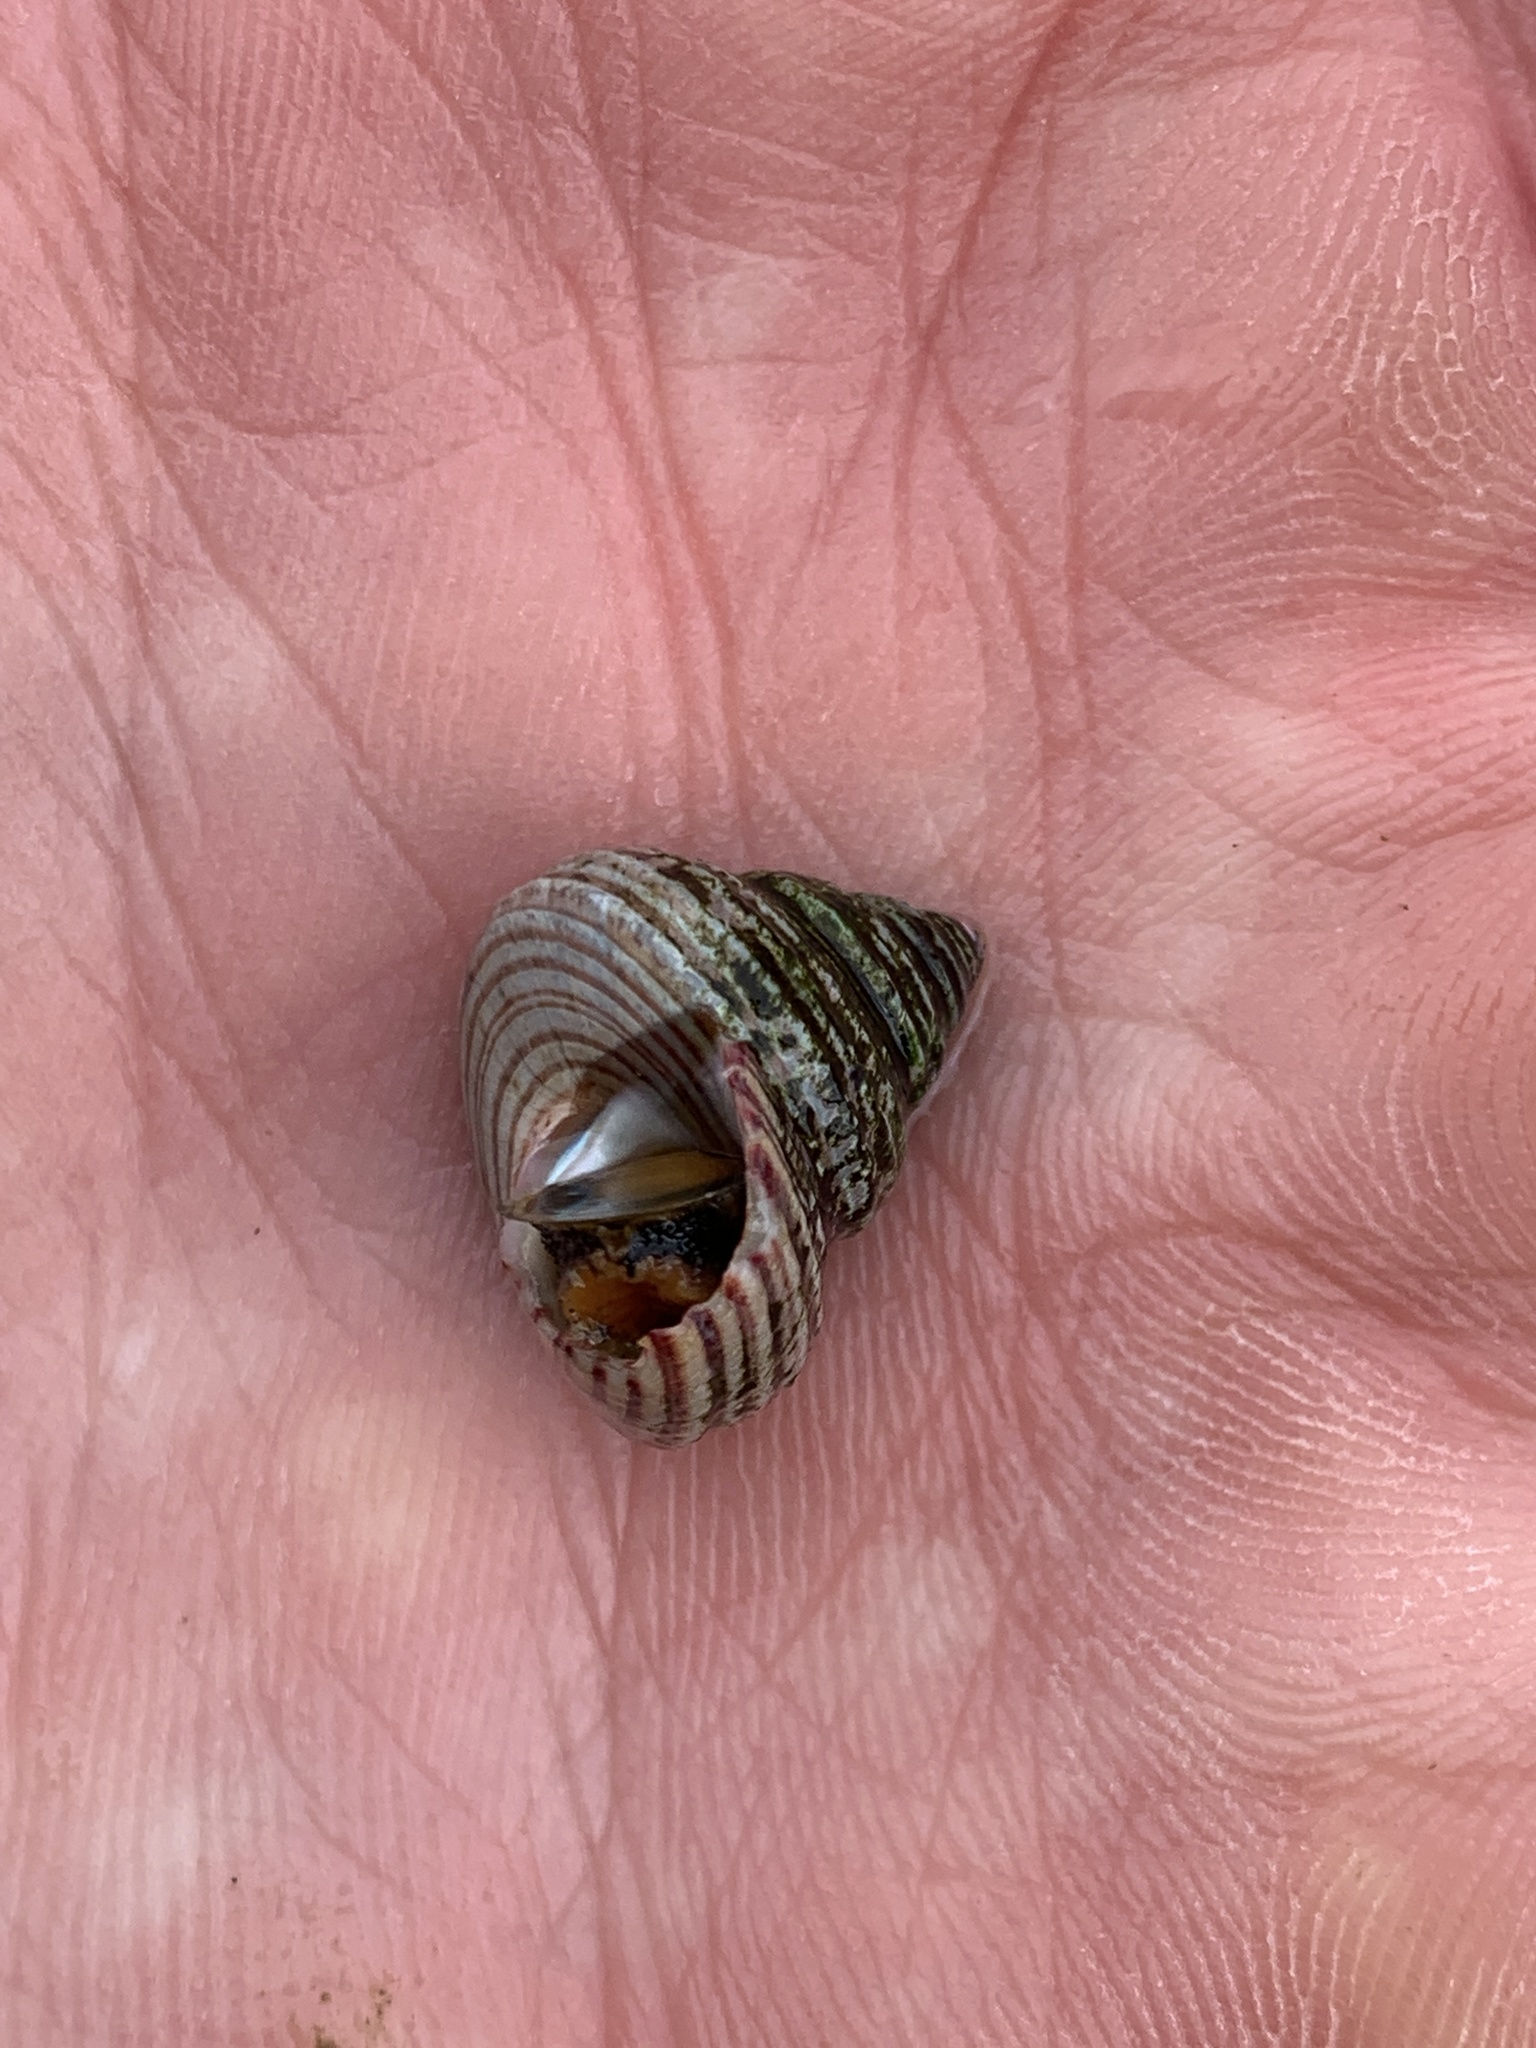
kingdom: Animalia
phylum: Mollusca
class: Gastropoda
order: Trochida
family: Calliostomatidae
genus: Calliostoma
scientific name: Calliostoma ligatum
